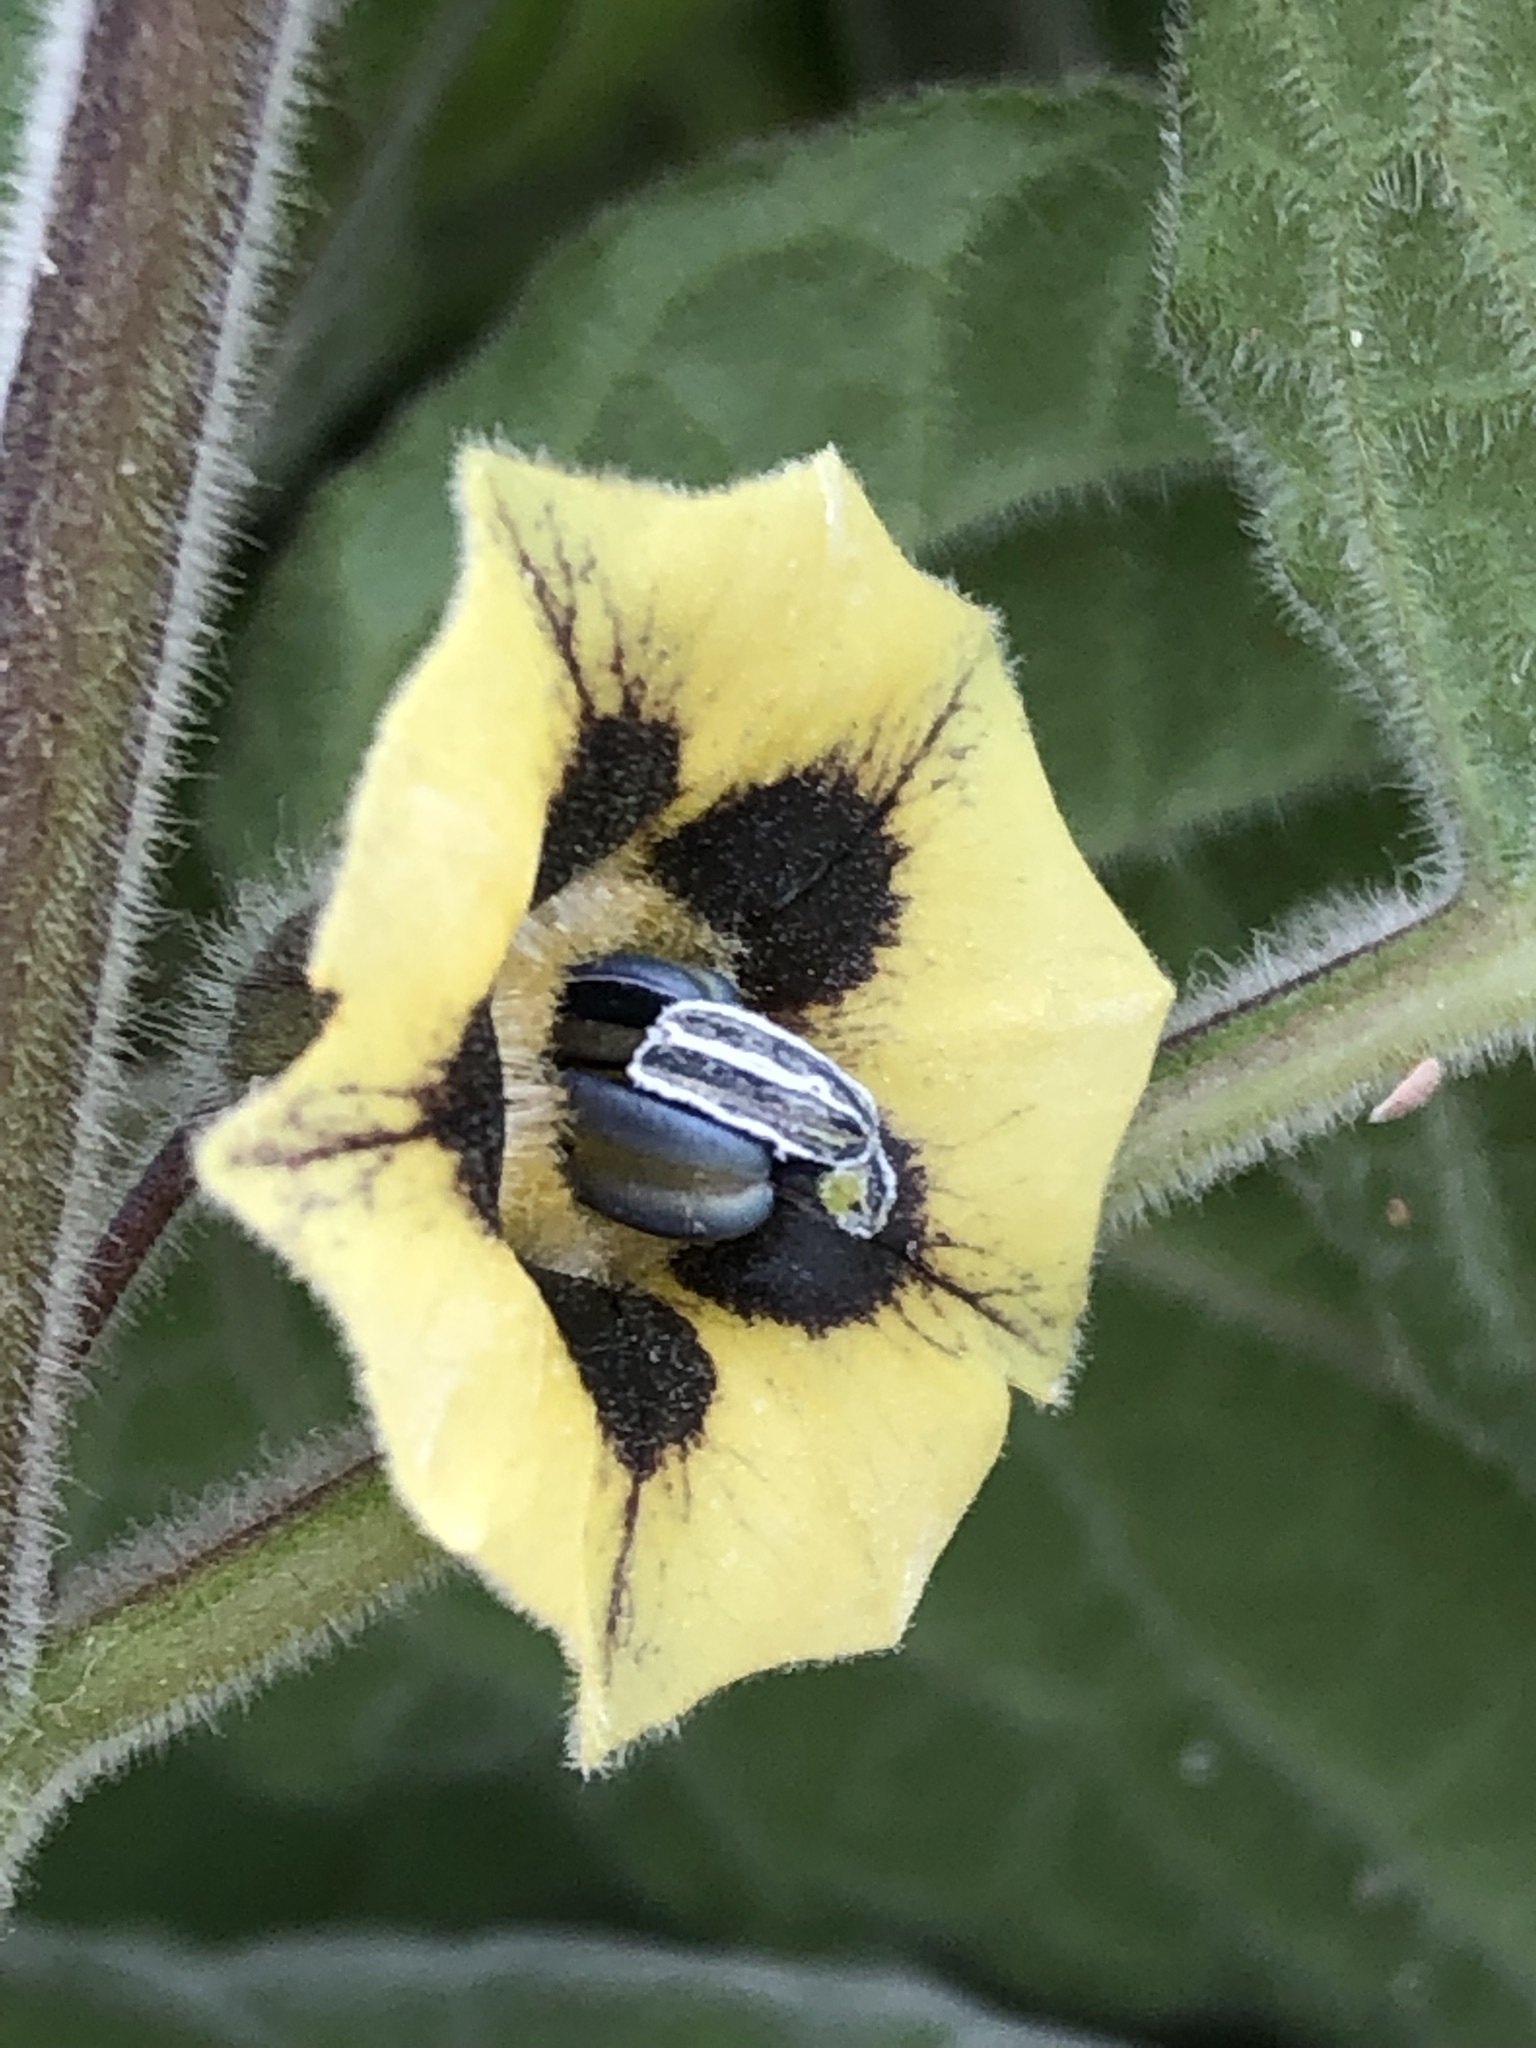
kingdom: Plantae
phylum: Tracheophyta
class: Magnoliopsida
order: Solanales
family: Solanaceae
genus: Physalis
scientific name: Physalis peruviana
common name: Cape-gooseberry
